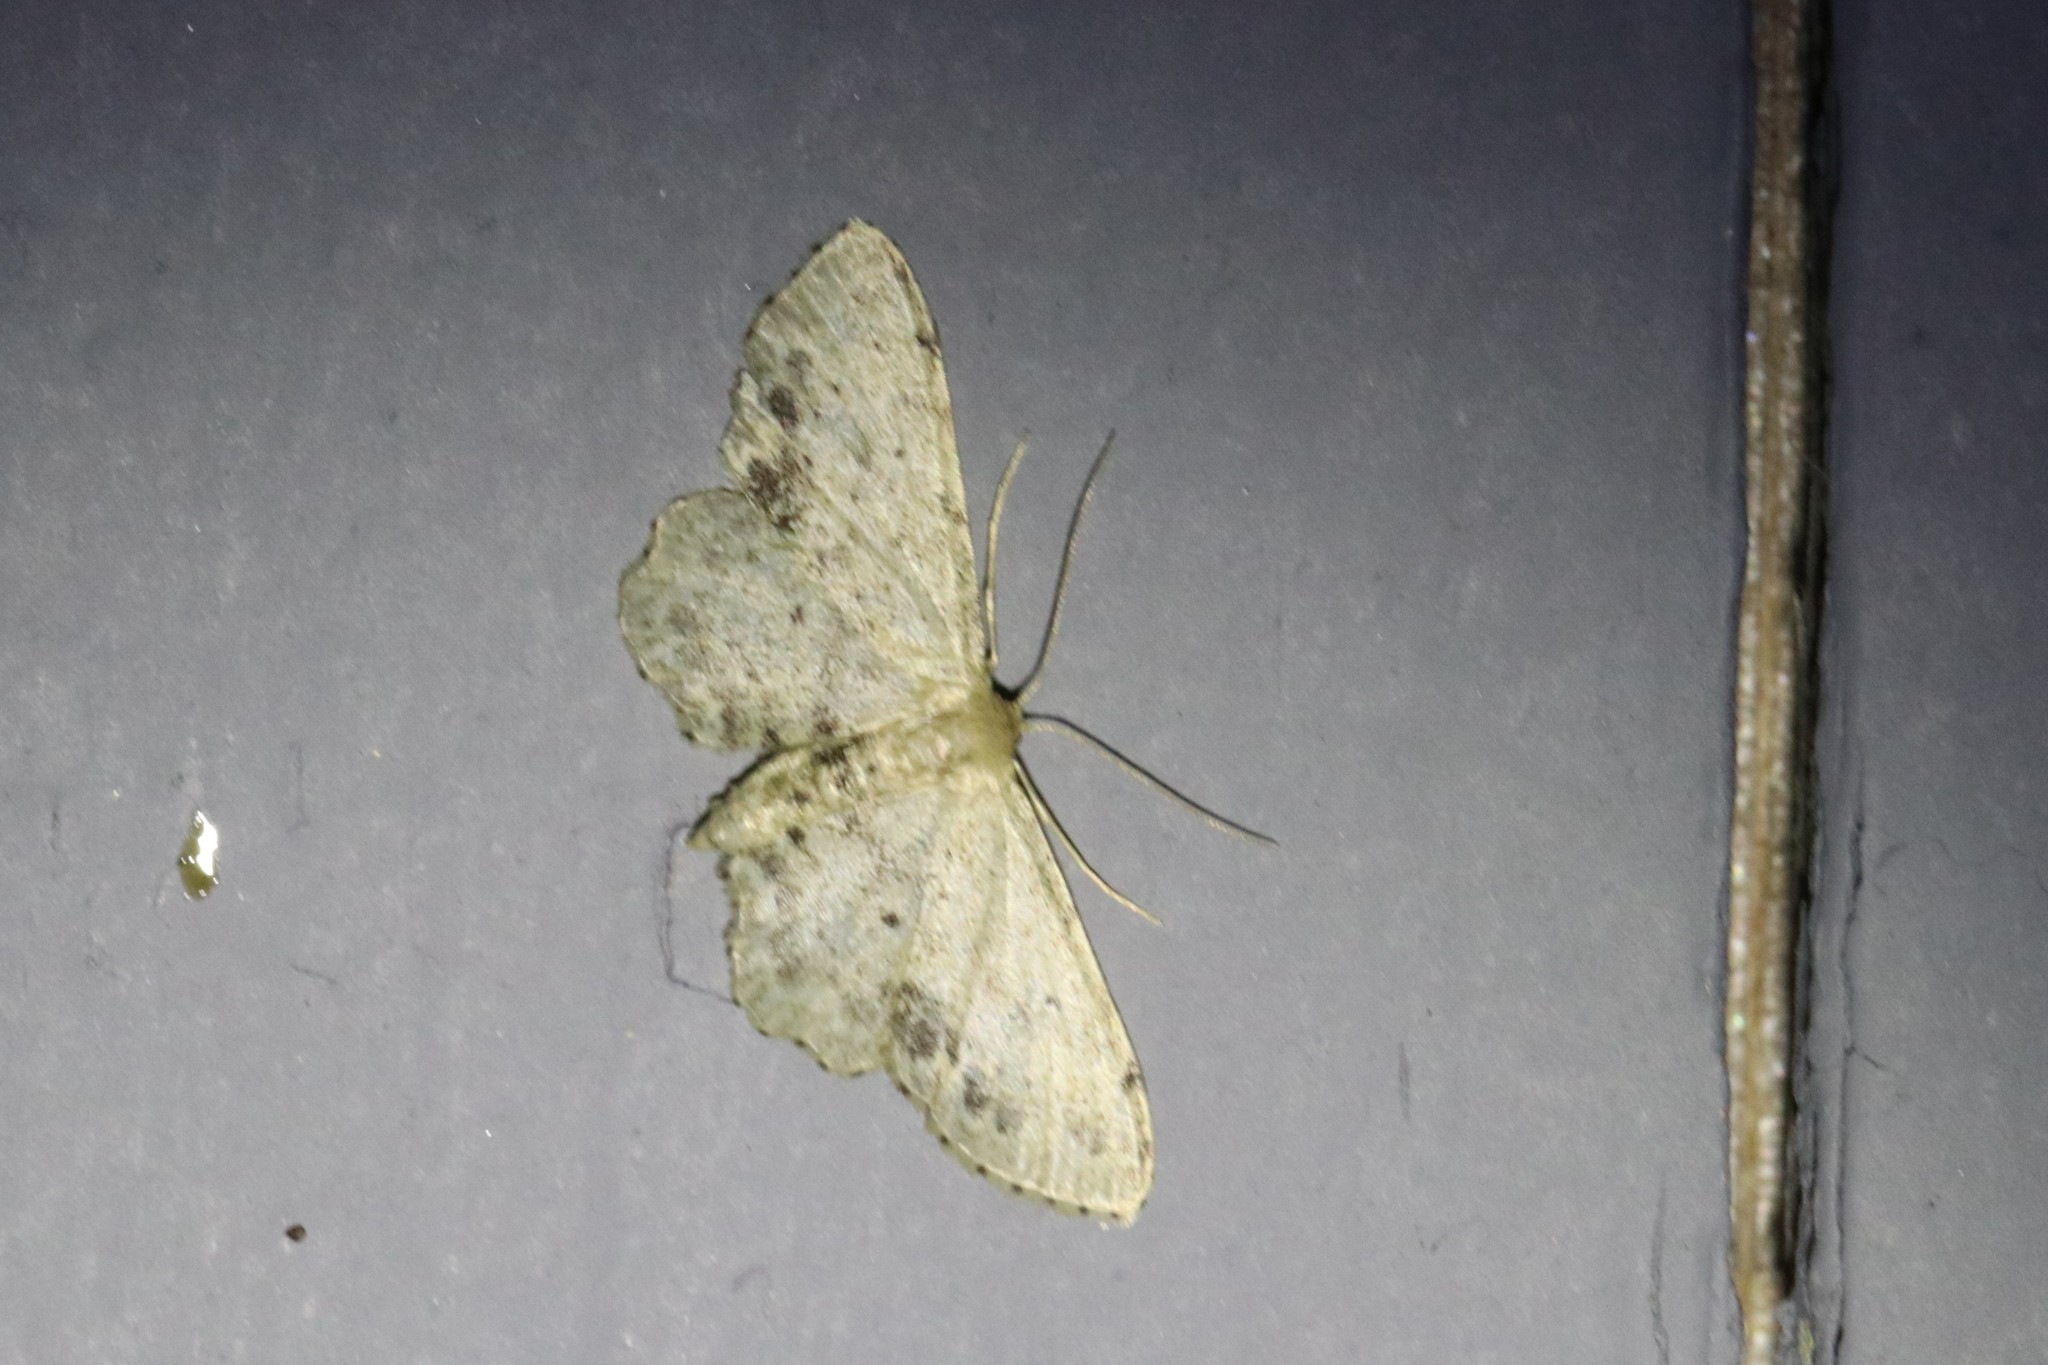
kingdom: Animalia
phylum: Arthropoda
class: Insecta
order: Lepidoptera
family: Geometridae
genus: Idaea
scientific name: Idaea dimidiata
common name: Single-dotted wave
